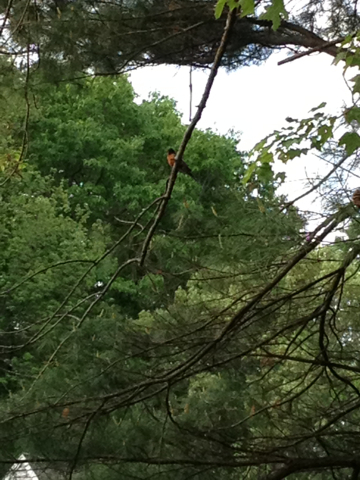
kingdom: Animalia
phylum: Chordata
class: Aves
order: Passeriformes
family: Turdidae
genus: Turdus
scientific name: Turdus migratorius
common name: American robin
